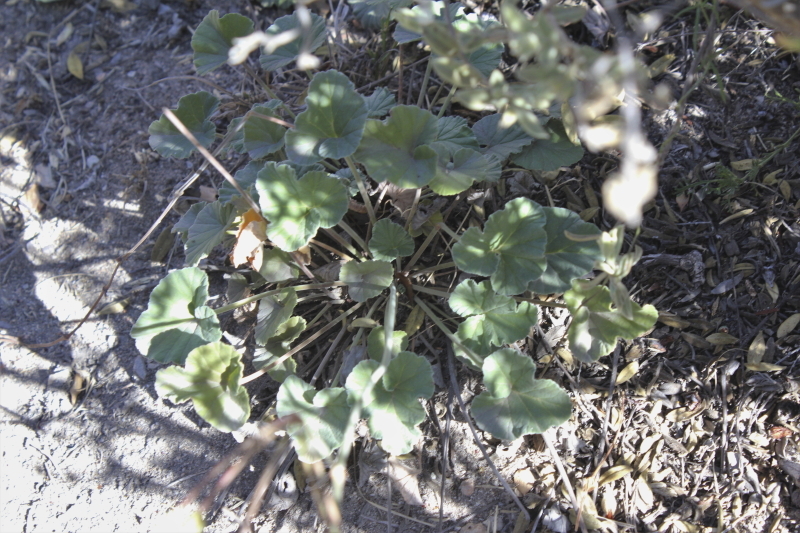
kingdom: Plantae
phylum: Tracheophyta
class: Magnoliopsida
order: Geraniales
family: Geraniaceae
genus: Pelargonium
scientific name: Pelargonium sidoides
